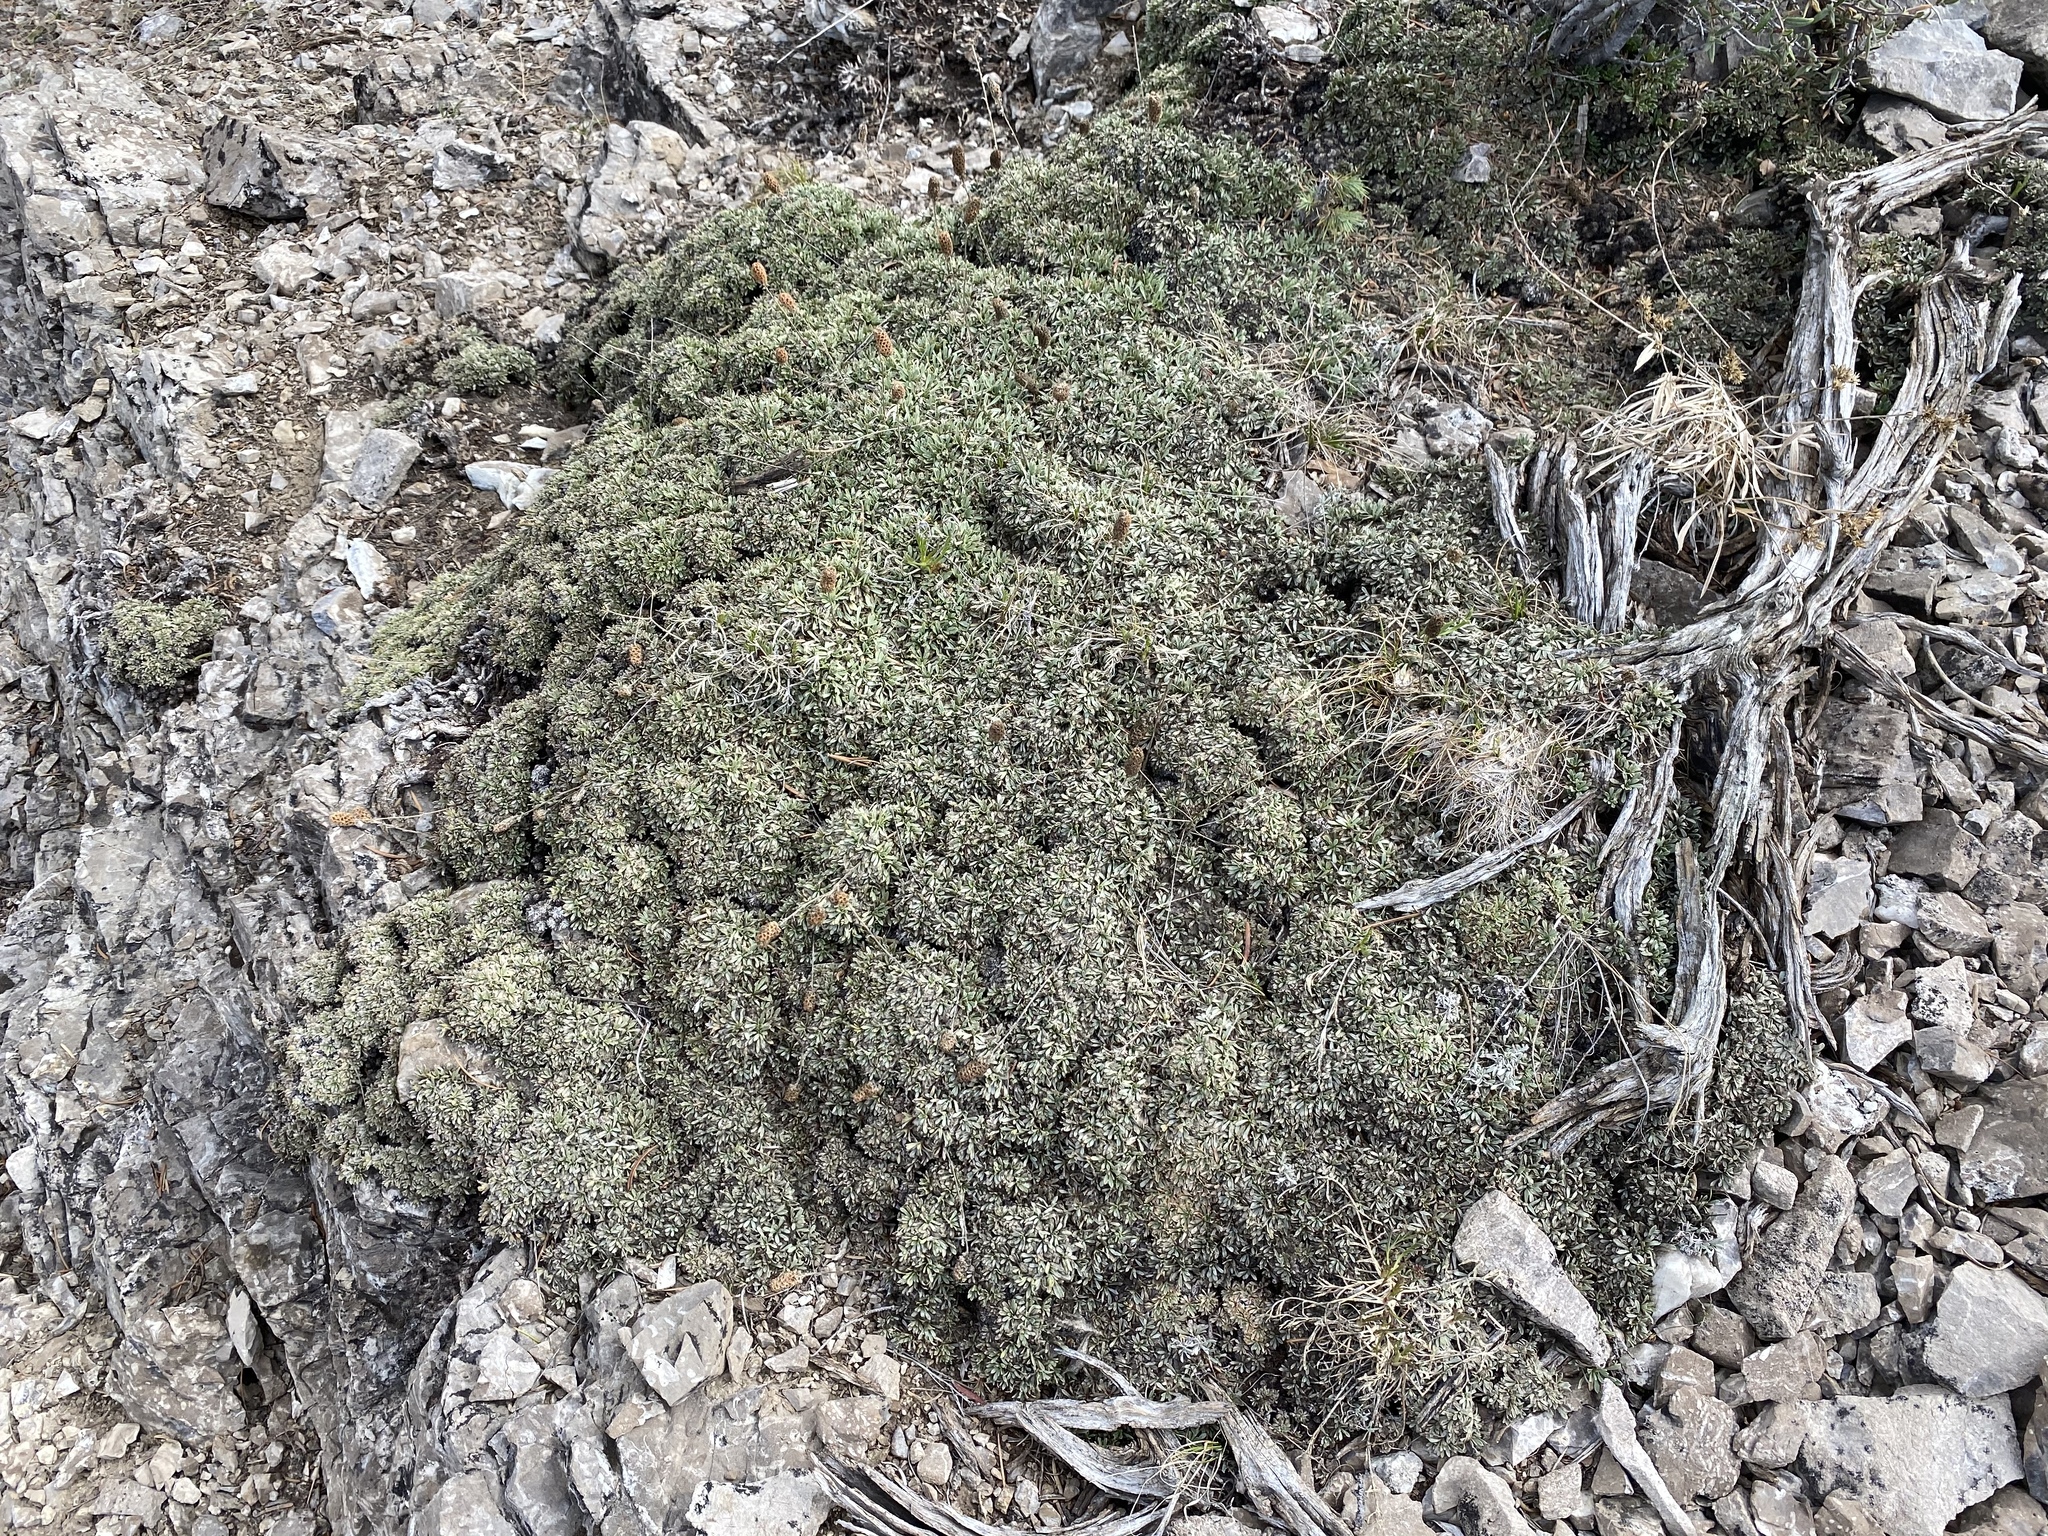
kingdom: Plantae
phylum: Tracheophyta
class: Magnoliopsida
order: Rosales
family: Rosaceae
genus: Petrophytum
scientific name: Petrophytum caespitosum
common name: Mat rockspirea
